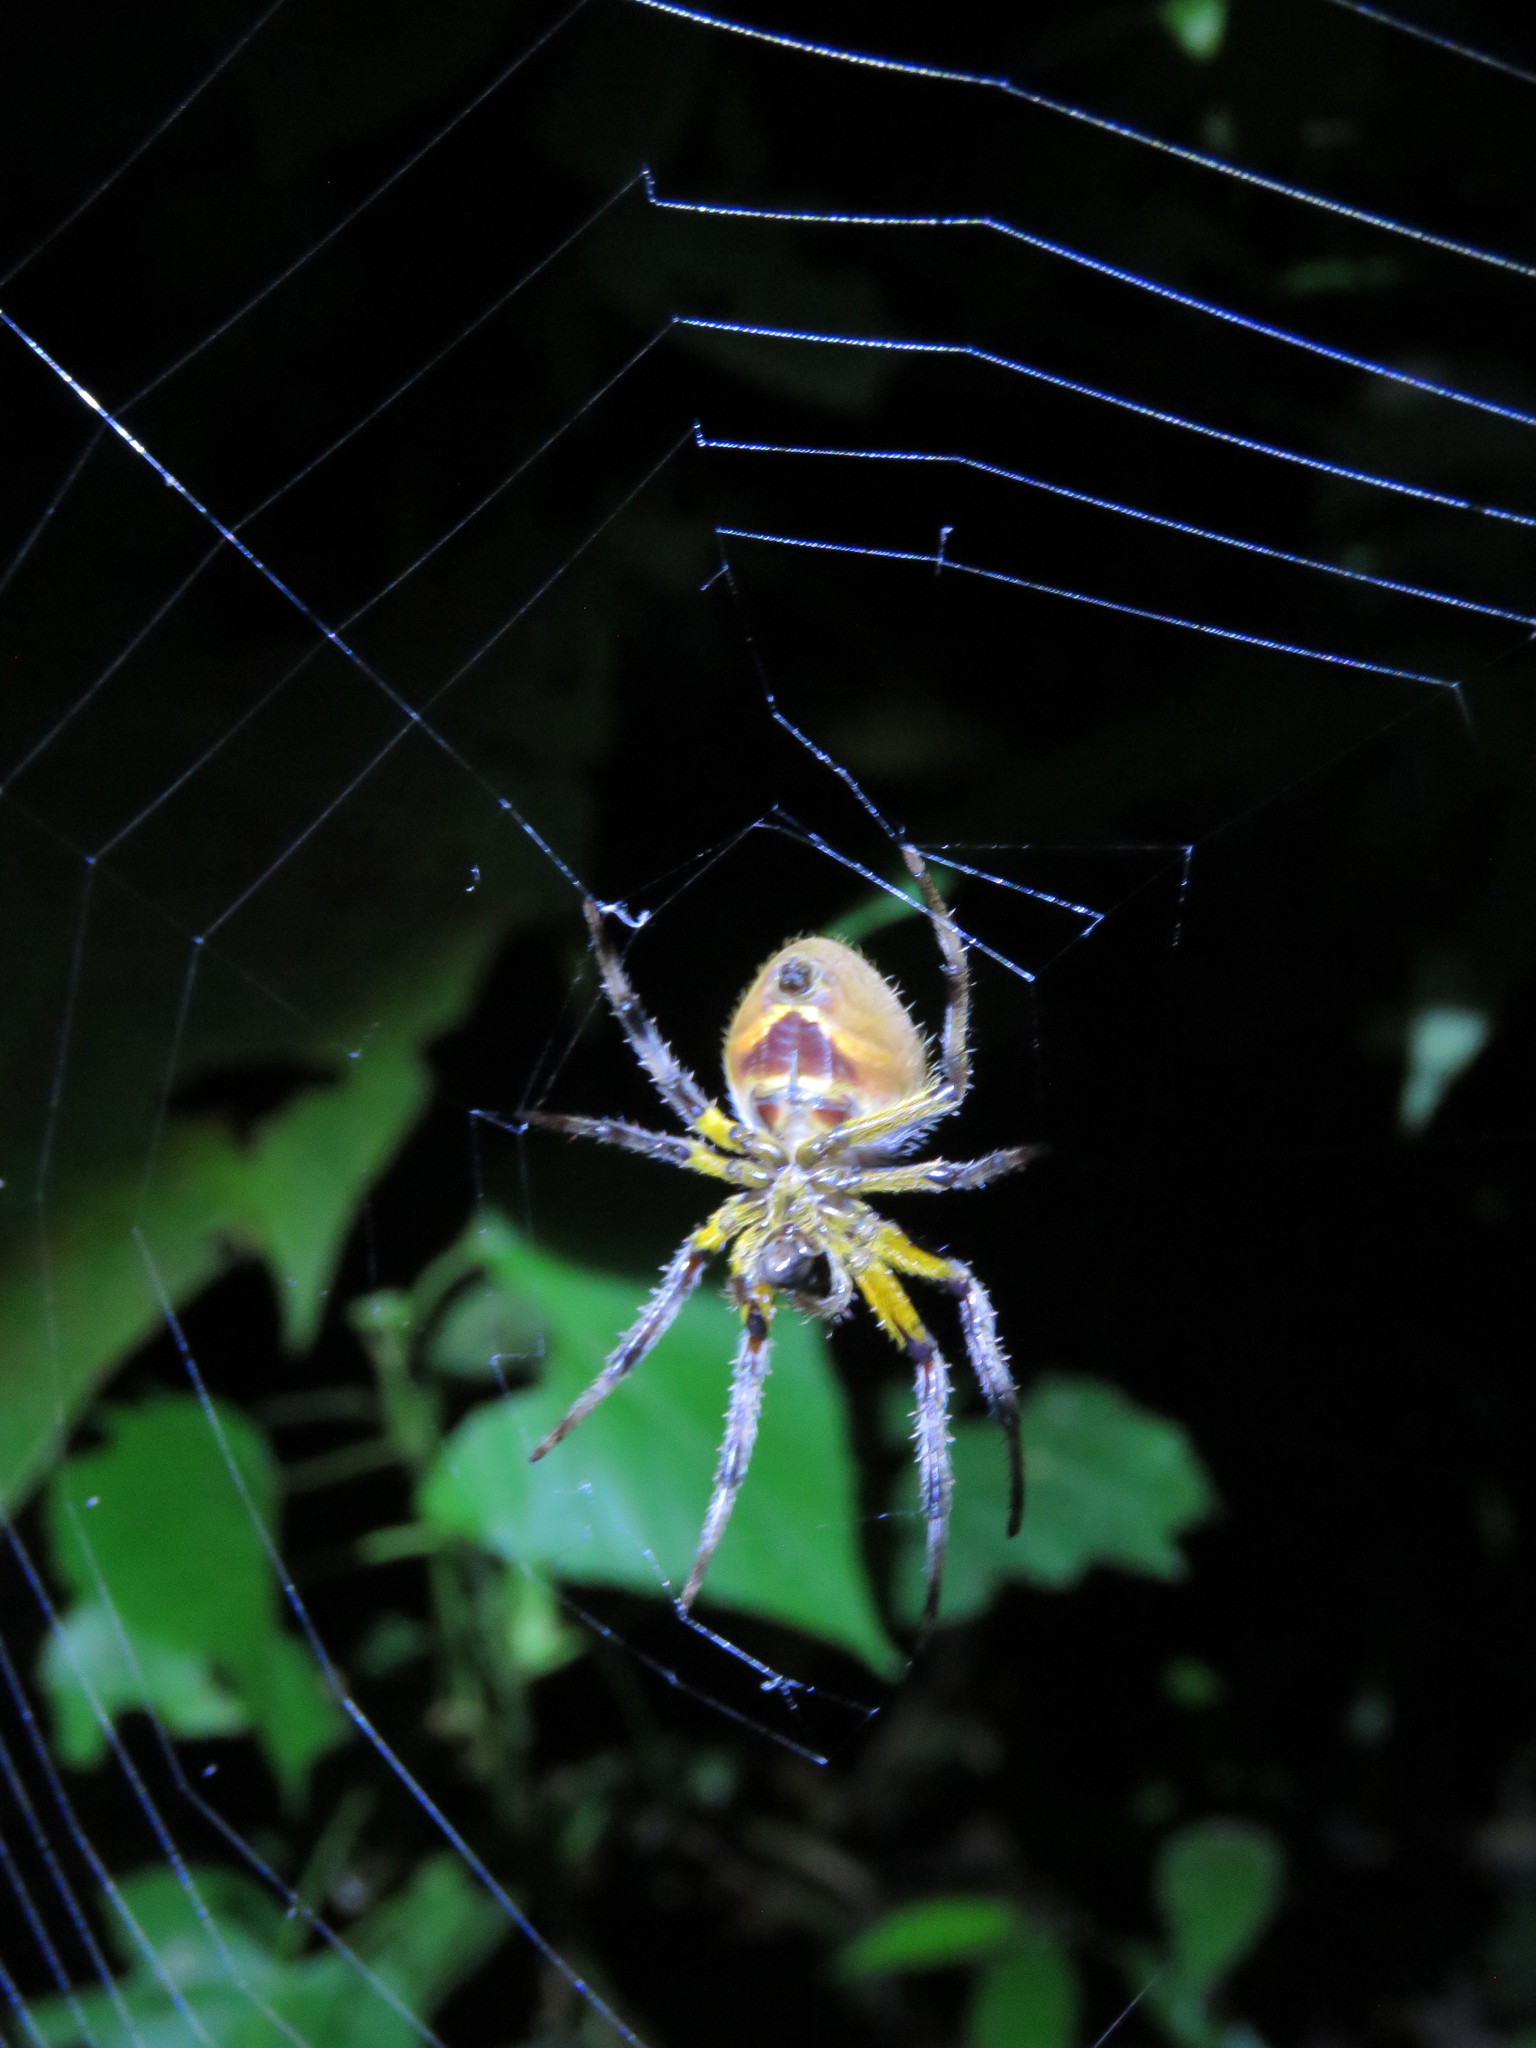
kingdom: Animalia
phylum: Arthropoda
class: Arachnida
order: Araneae
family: Araneidae
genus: Eriophora
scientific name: Eriophora fuliginea
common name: Orb weavers
